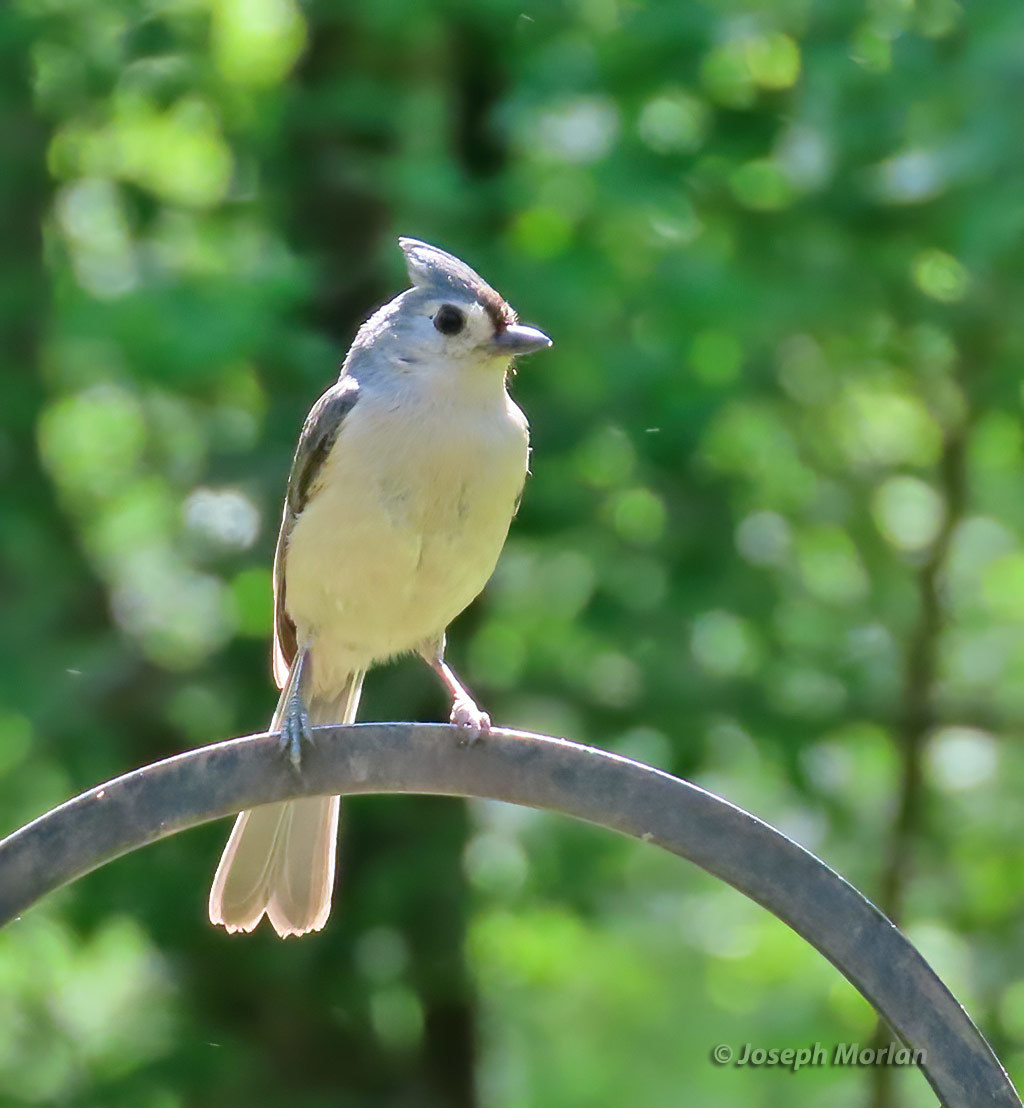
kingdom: Animalia
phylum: Chordata
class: Aves
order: Passeriformes
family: Paridae
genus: Baeolophus
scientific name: Baeolophus bicolor
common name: Tufted titmouse
